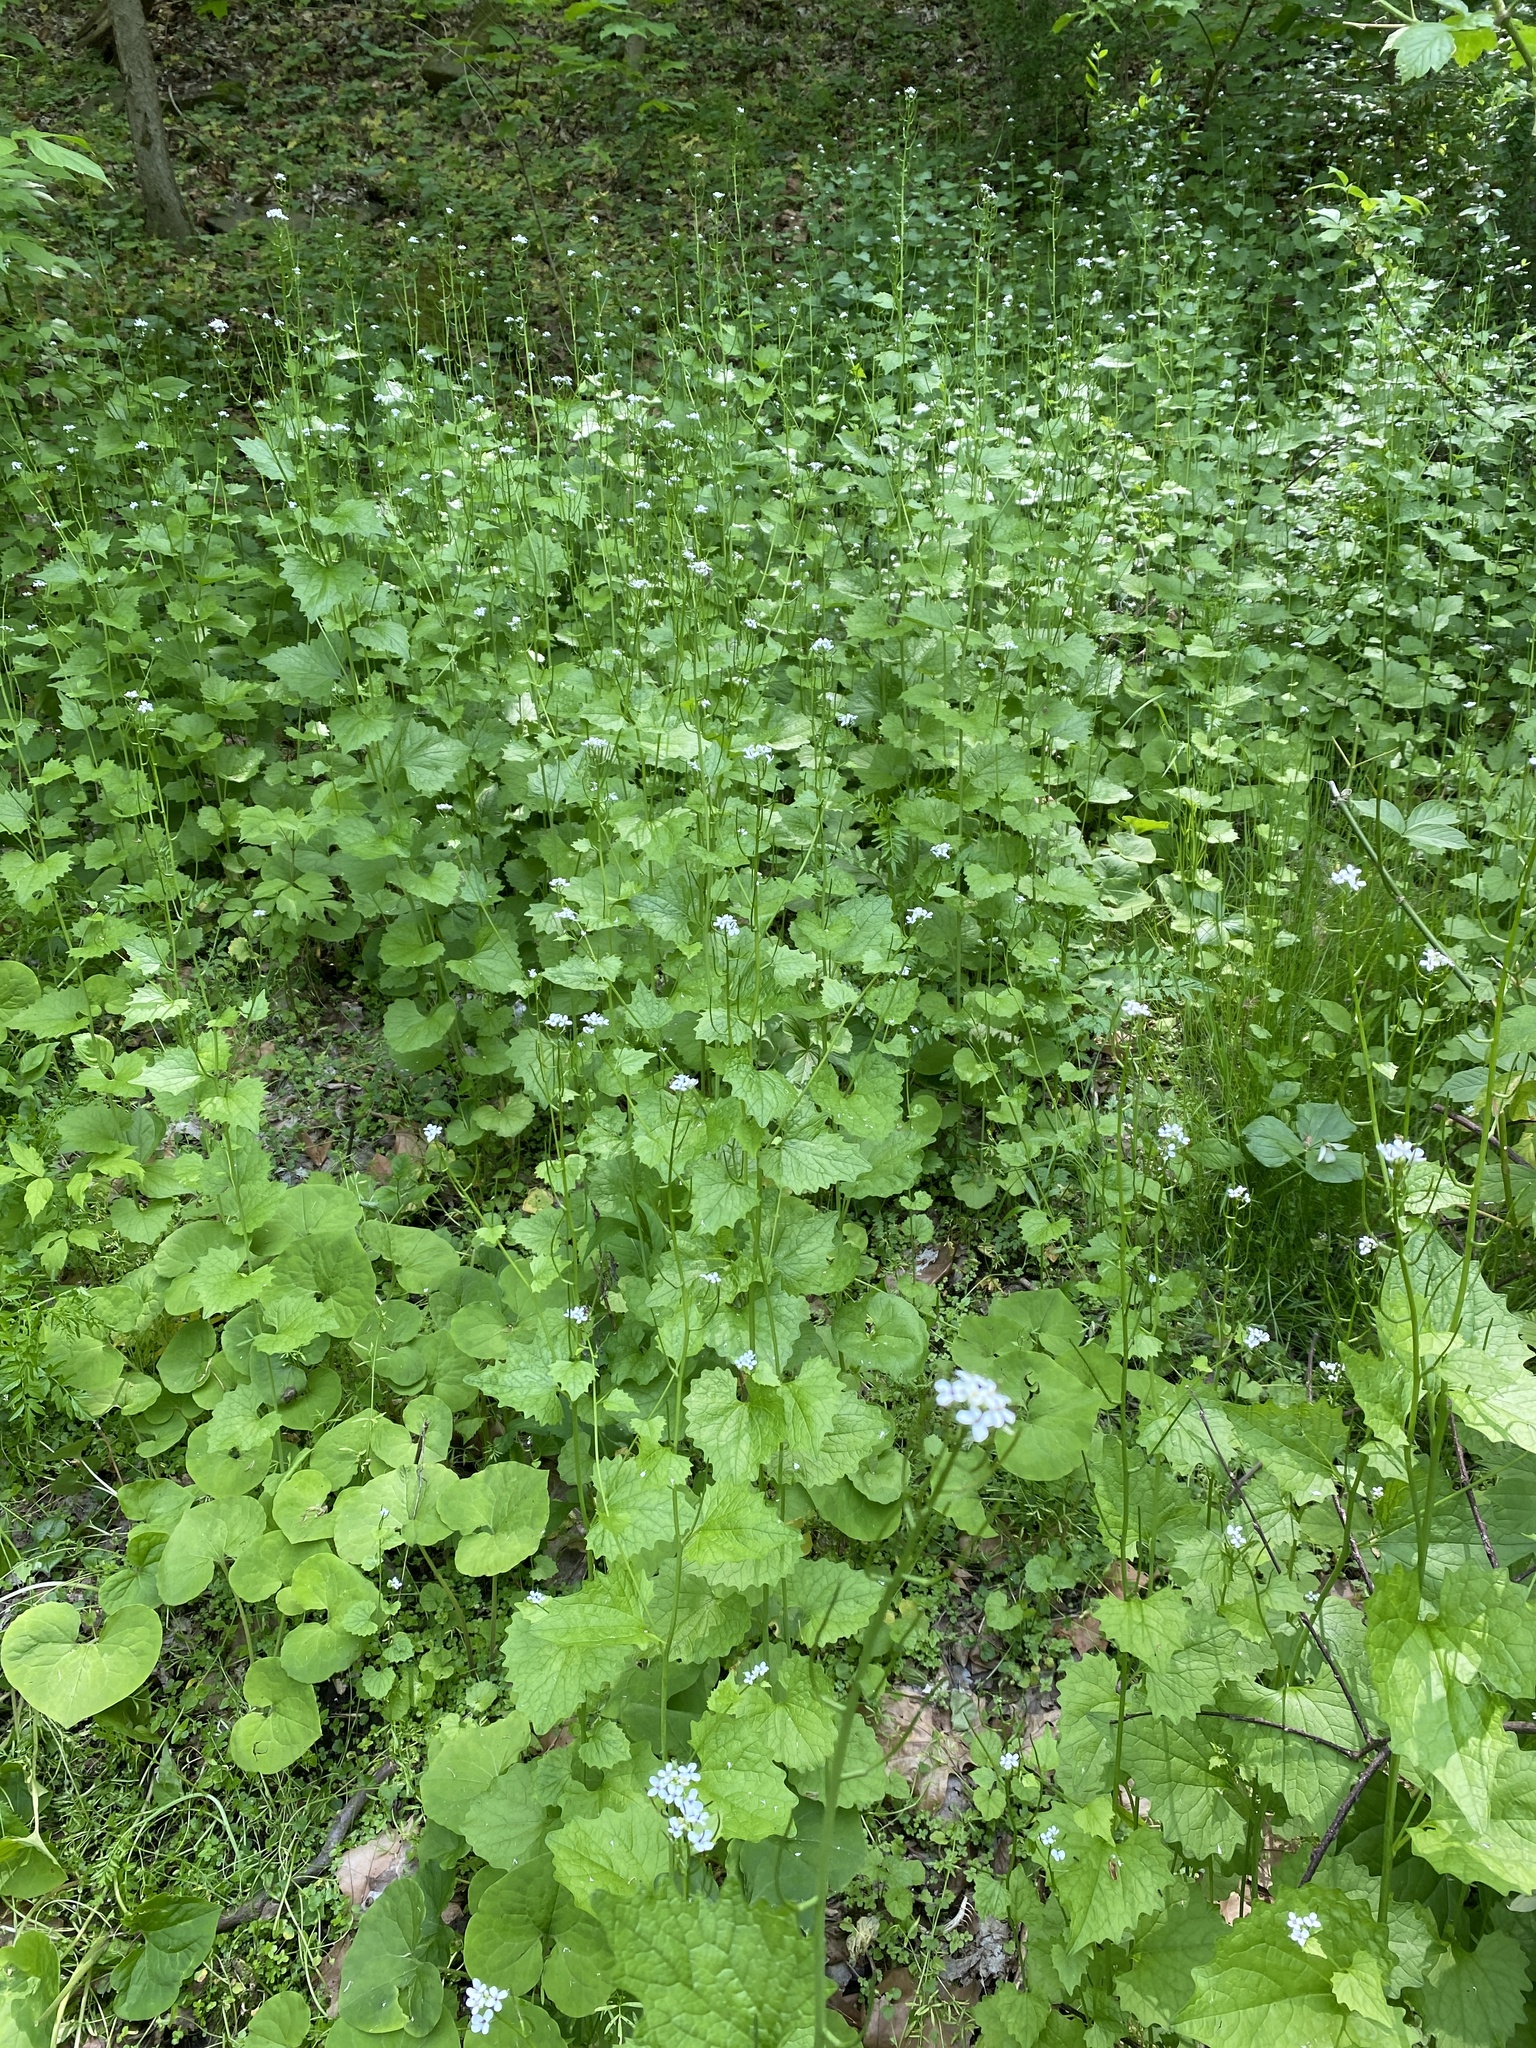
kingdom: Plantae
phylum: Tracheophyta
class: Magnoliopsida
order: Brassicales
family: Brassicaceae
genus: Alliaria
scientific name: Alliaria petiolata
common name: Garlic mustard
